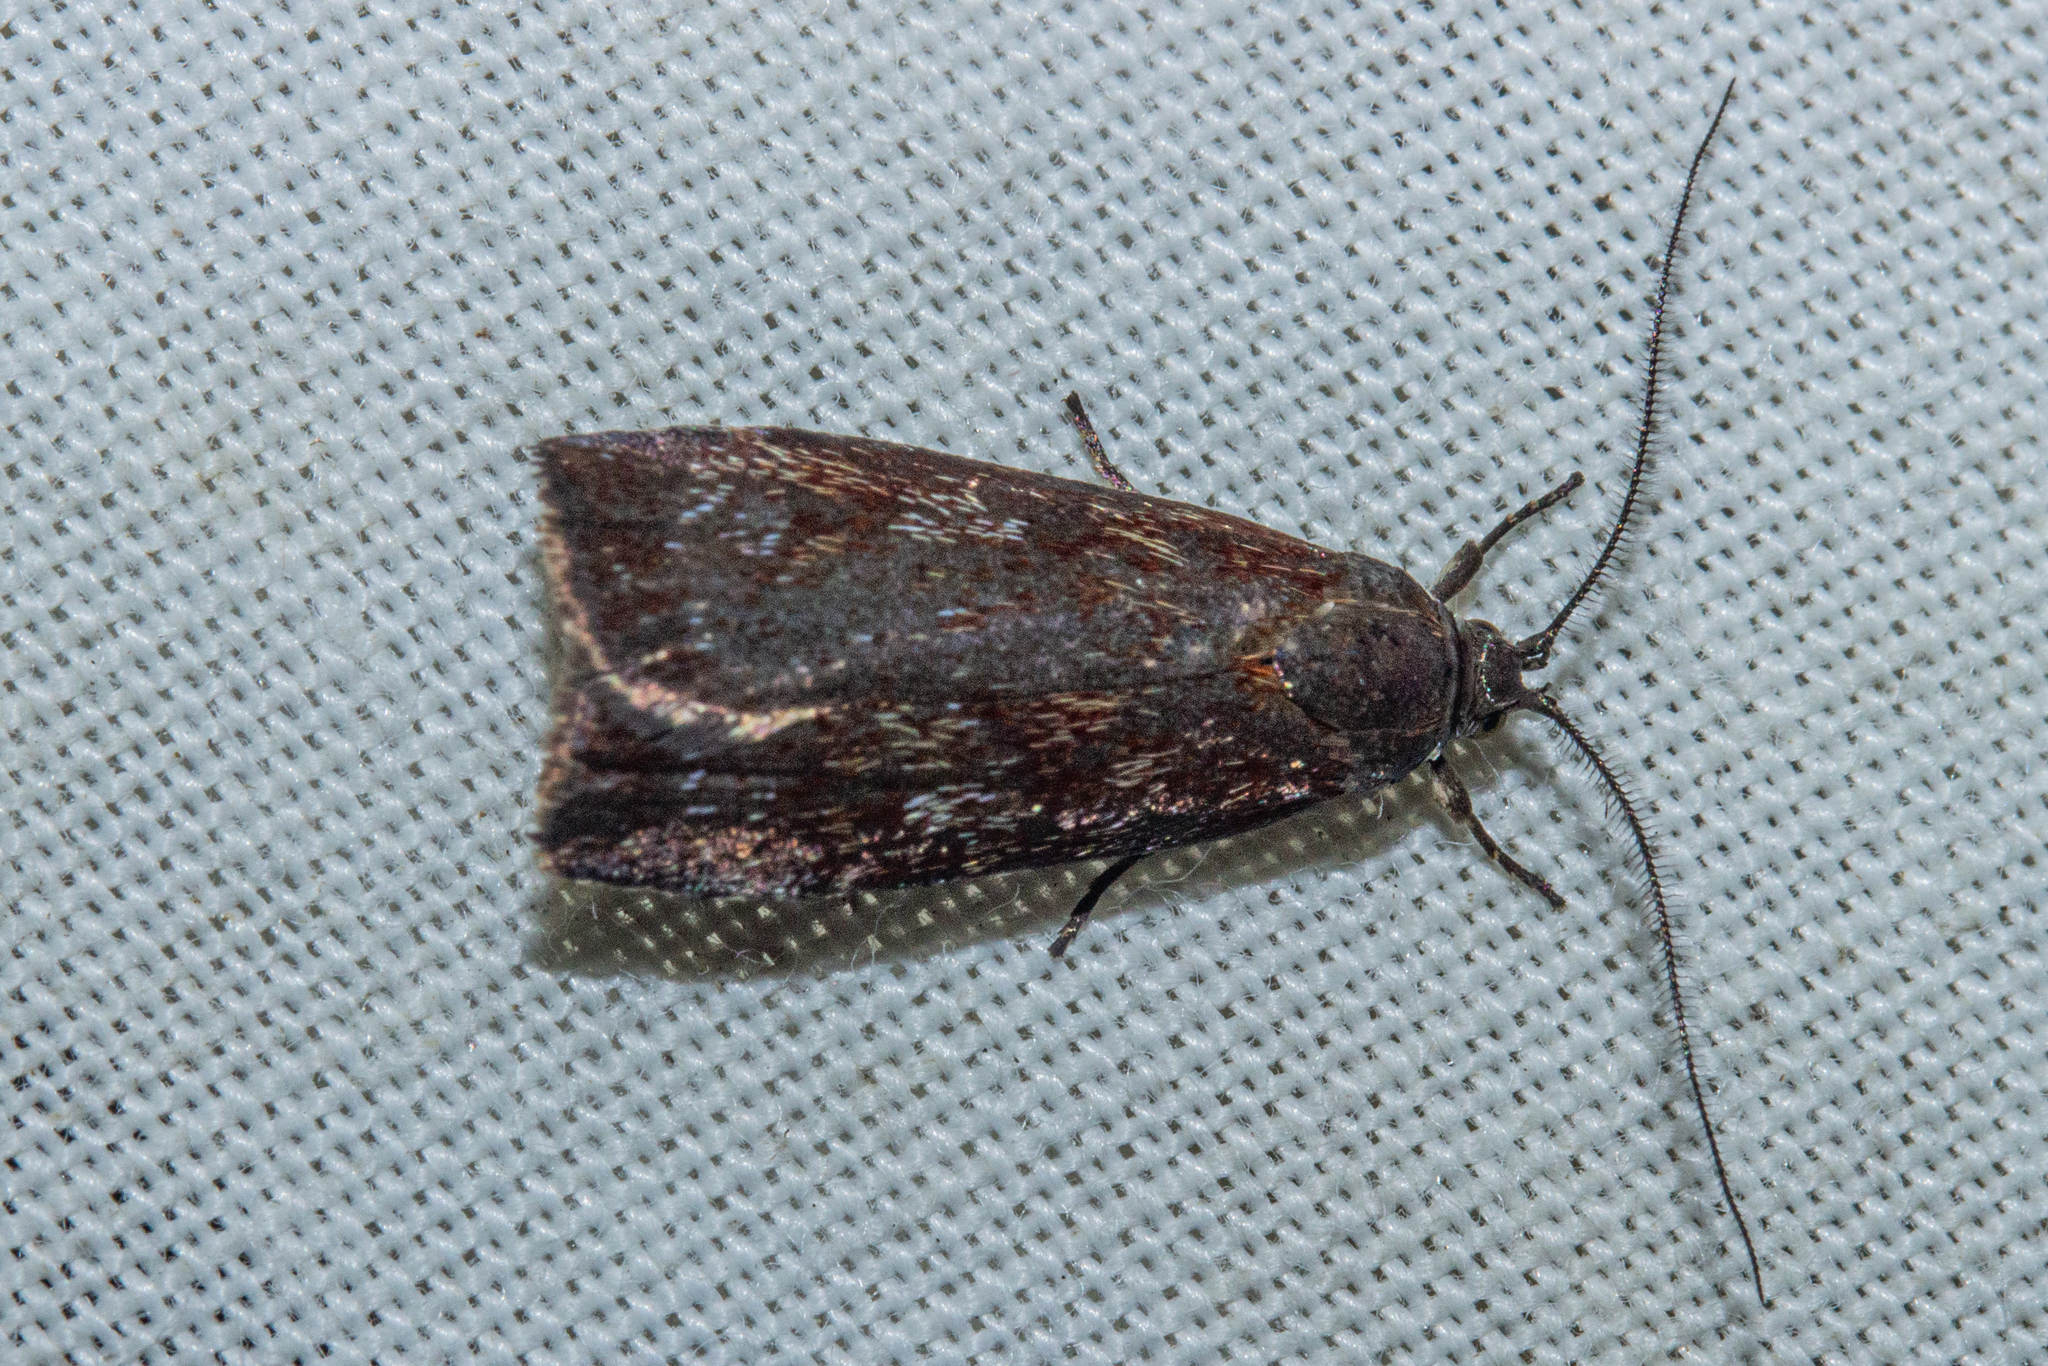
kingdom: Animalia
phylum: Arthropoda
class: Insecta
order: Lepidoptera
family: Oecophoridae
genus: Hierodoris
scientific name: Hierodoris
